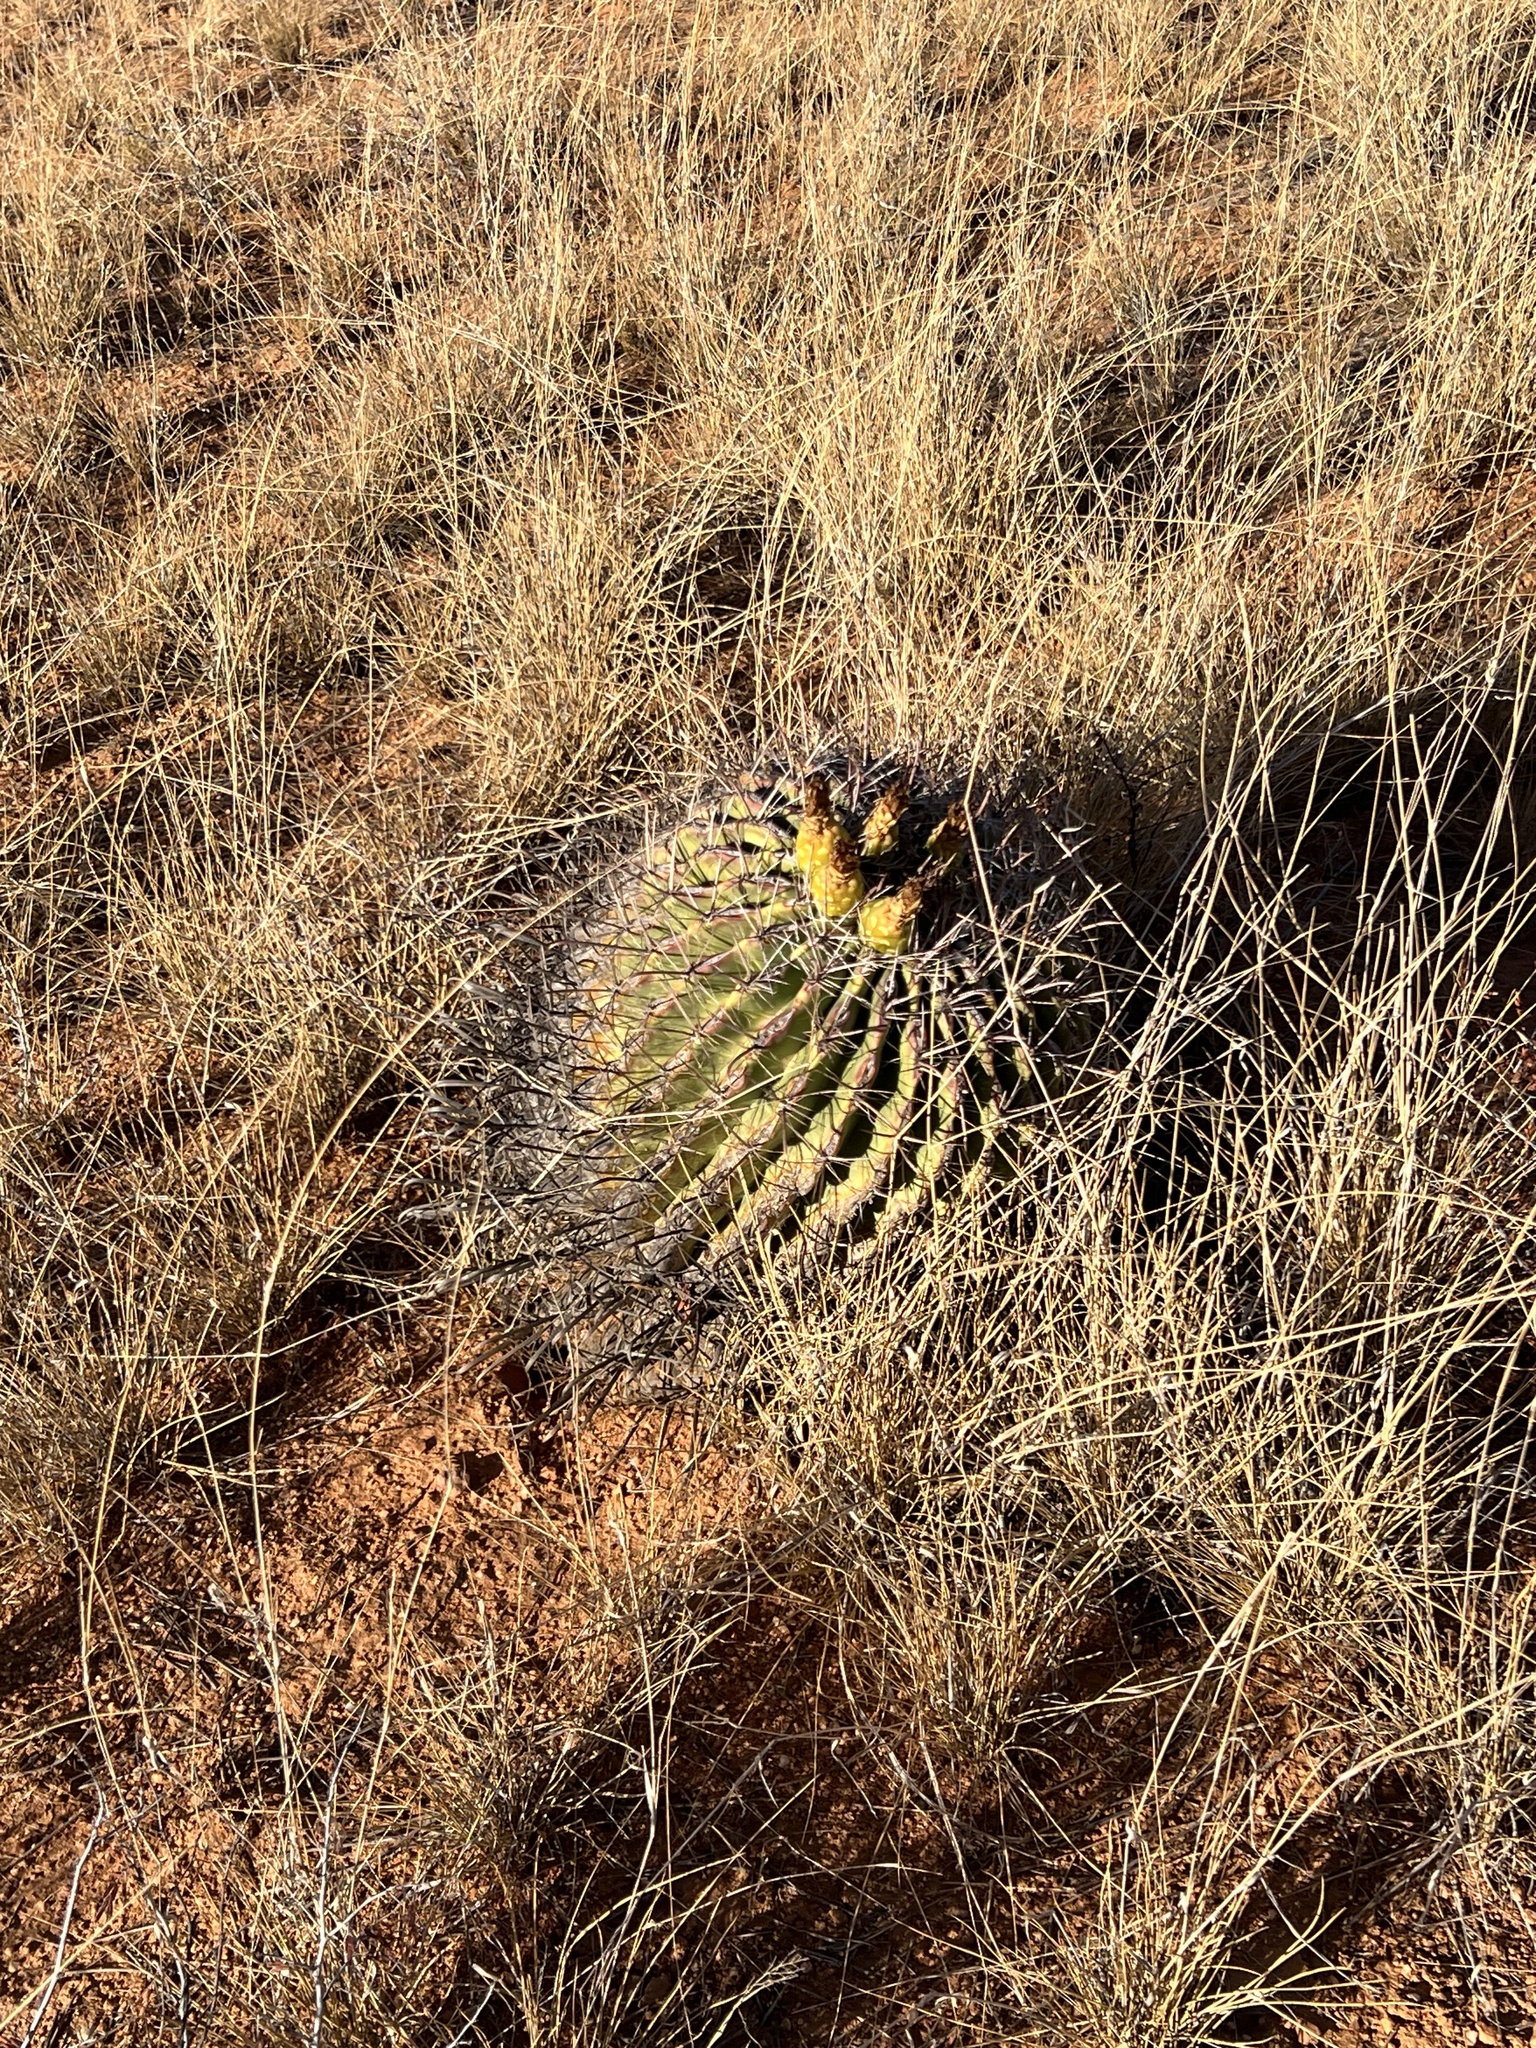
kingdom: Plantae
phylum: Tracheophyta
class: Magnoliopsida
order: Caryophyllales
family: Cactaceae
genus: Ferocactus
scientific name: Ferocactus wislizeni
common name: Candy barrel cactus
